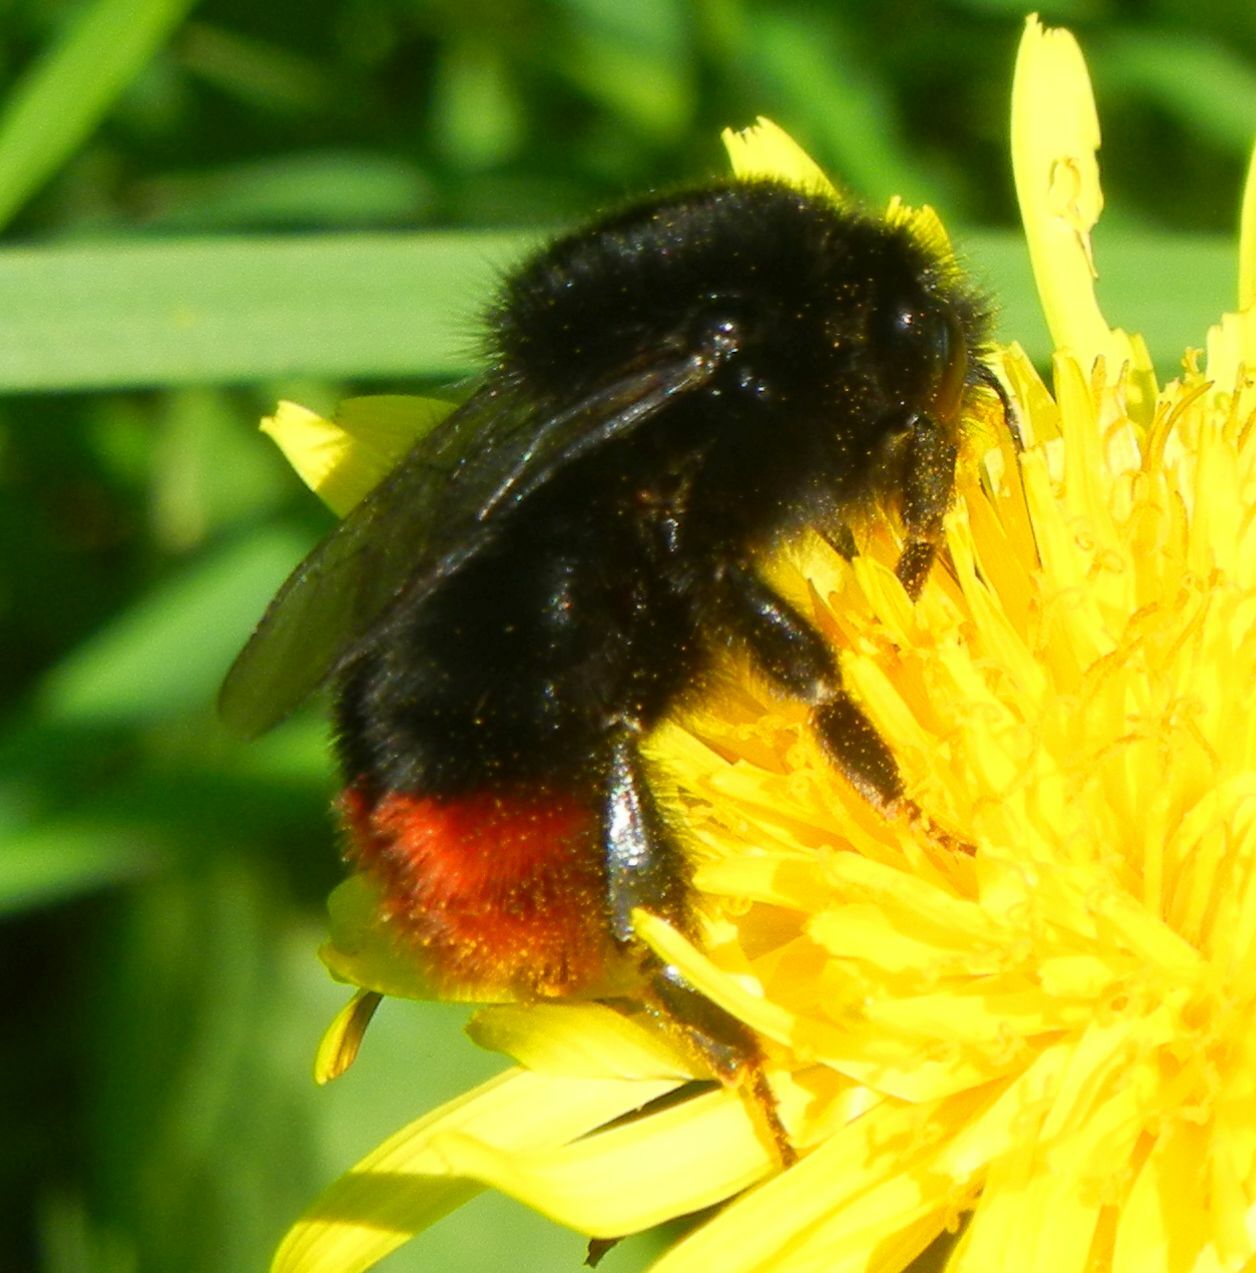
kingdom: Animalia
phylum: Arthropoda
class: Insecta
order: Hymenoptera
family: Apidae
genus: Bombus
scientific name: Bombus lapidarius
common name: Large red-tailed humble-bee
